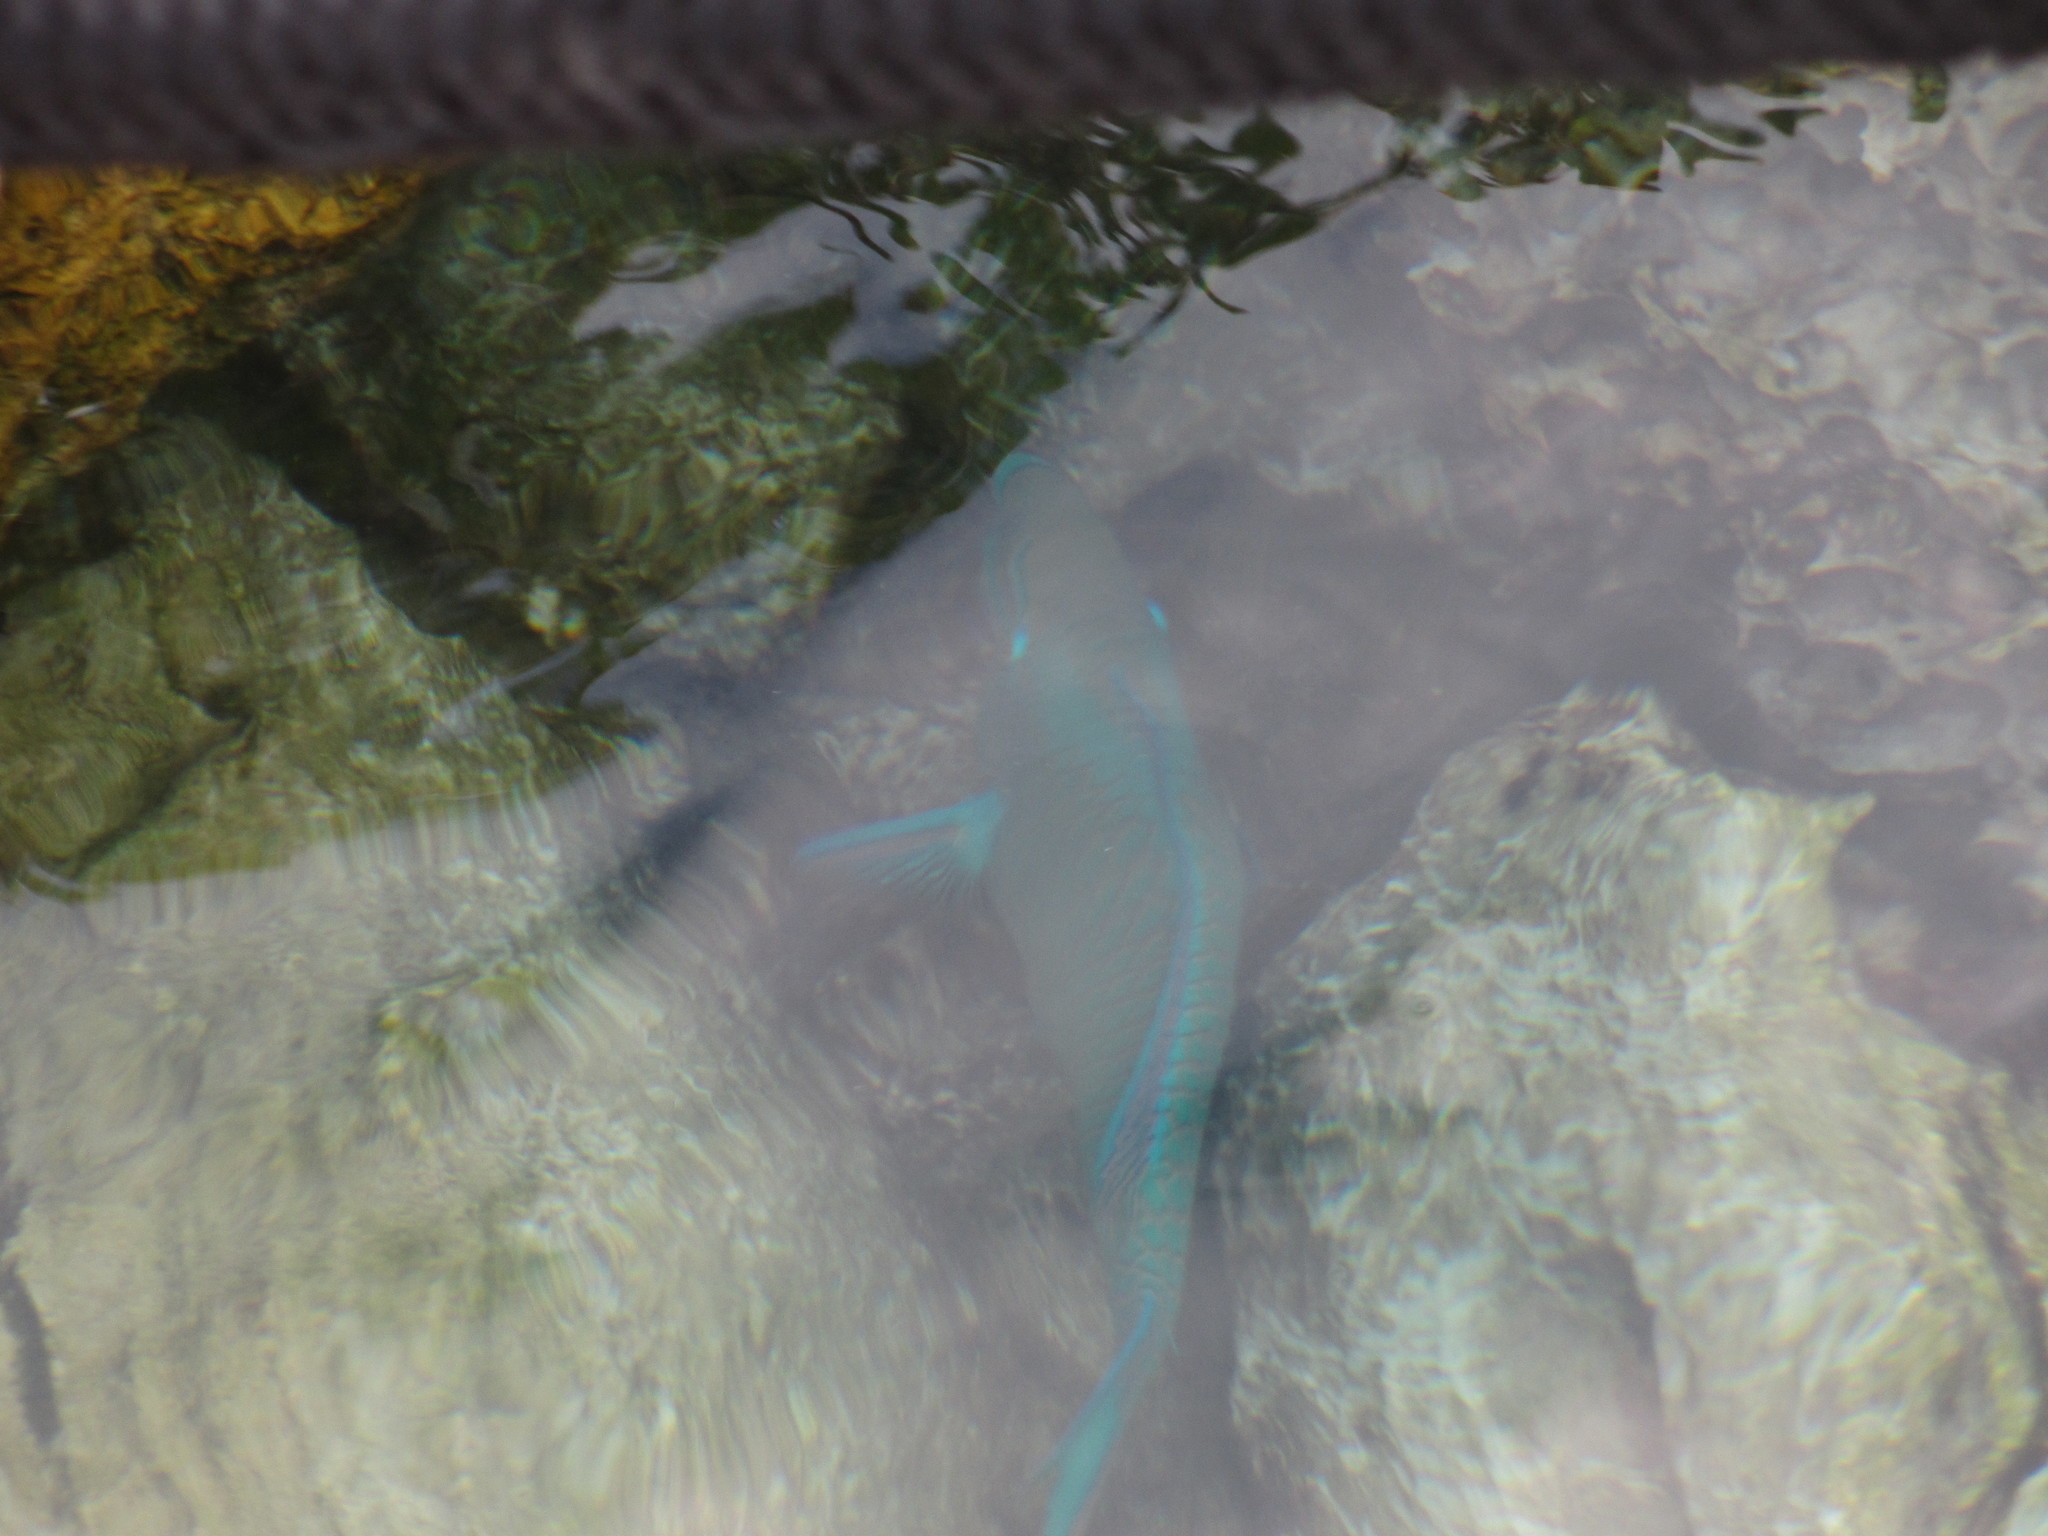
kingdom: Animalia
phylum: Chordata
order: Perciformes
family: Scaridae
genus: Scarus
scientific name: Scarus vetula
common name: Queen parrotfish
